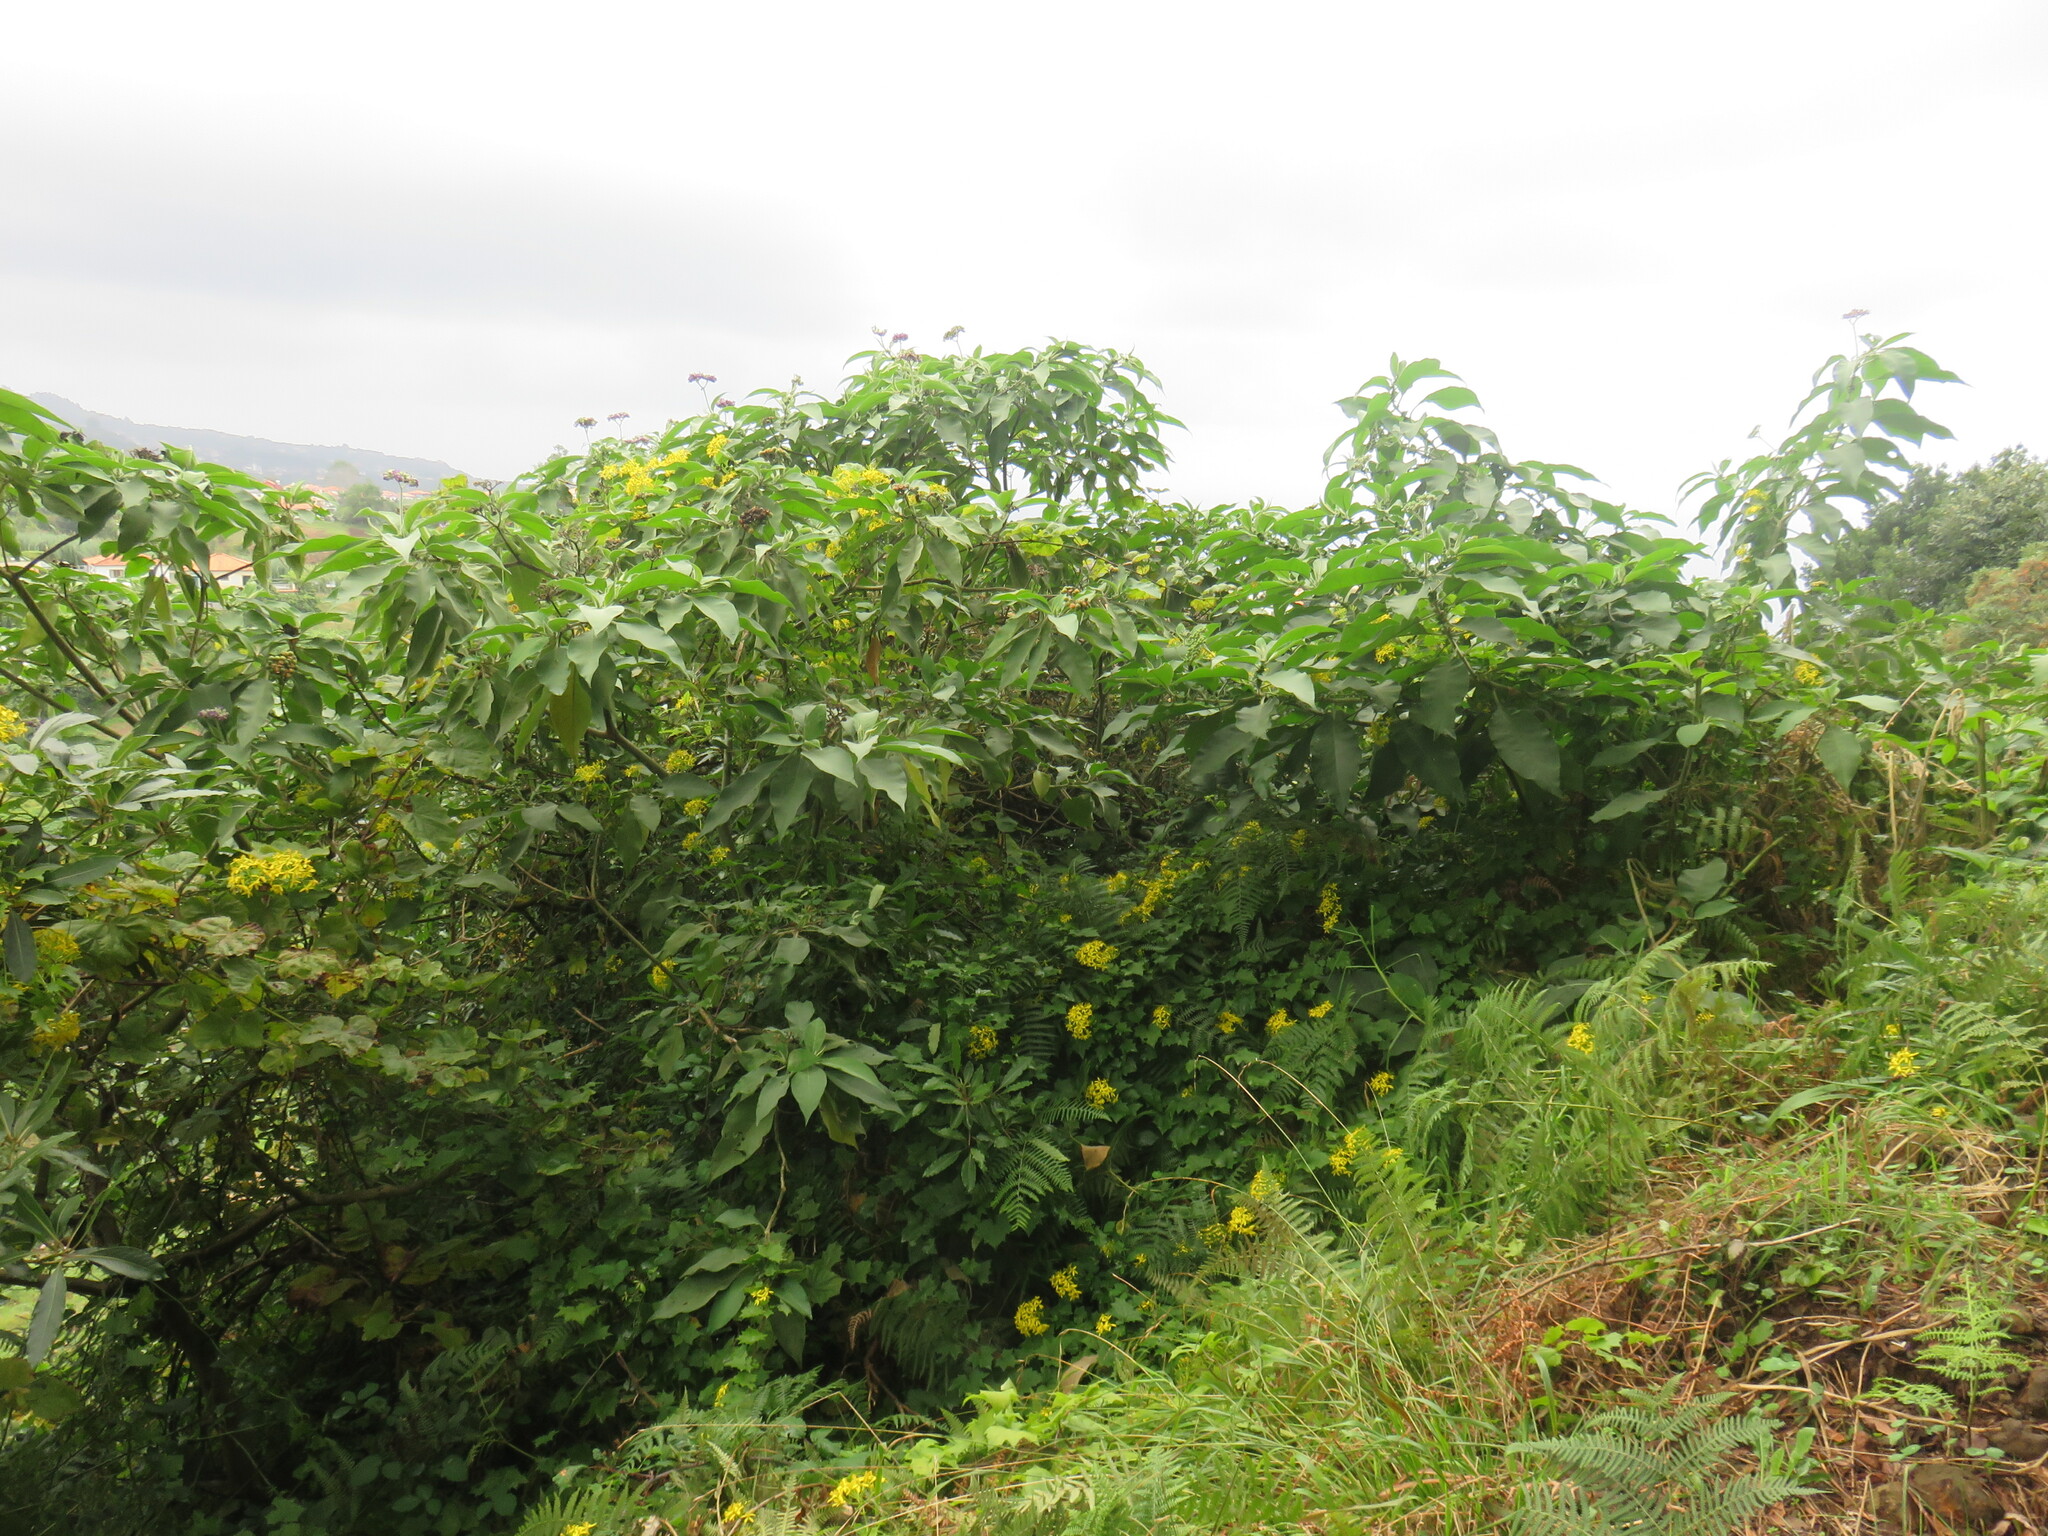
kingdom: Plantae
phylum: Tracheophyta
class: Magnoliopsida
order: Solanales
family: Solanaceae
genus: Solanum
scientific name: Solanum mauritianum
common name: Earleaf nightshade
